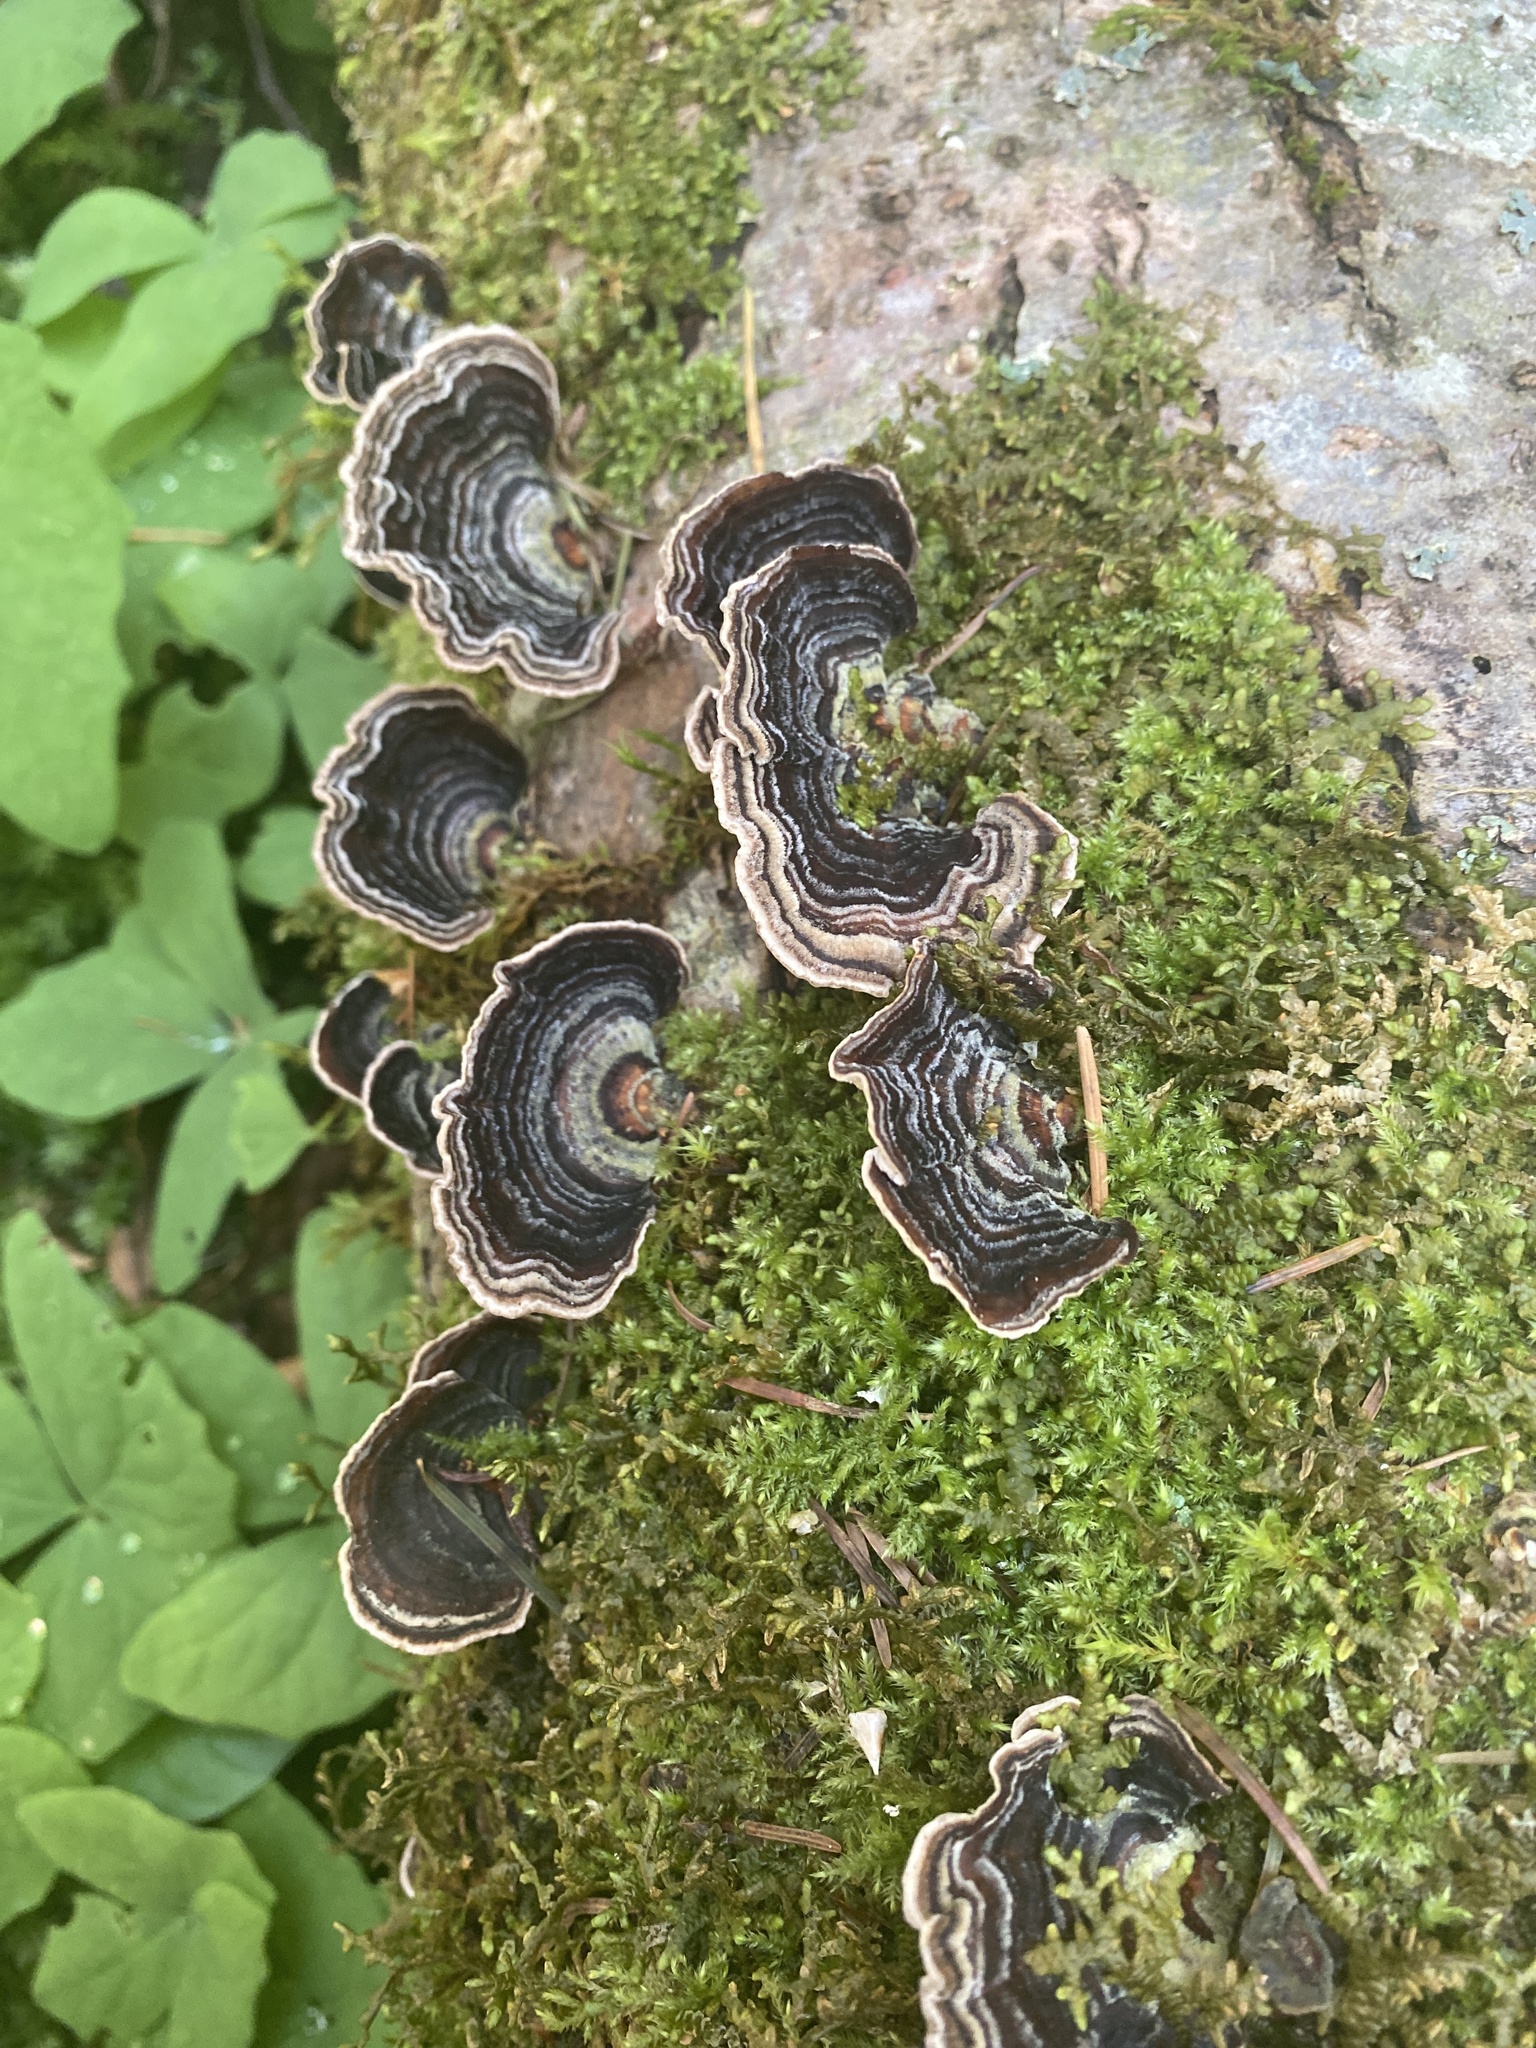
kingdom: Fungi
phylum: Basidiomycota
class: Agaricomycetes
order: Polyporales
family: Polyporaceae
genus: Trametes
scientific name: Trametes versicolor
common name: Turkeytail
